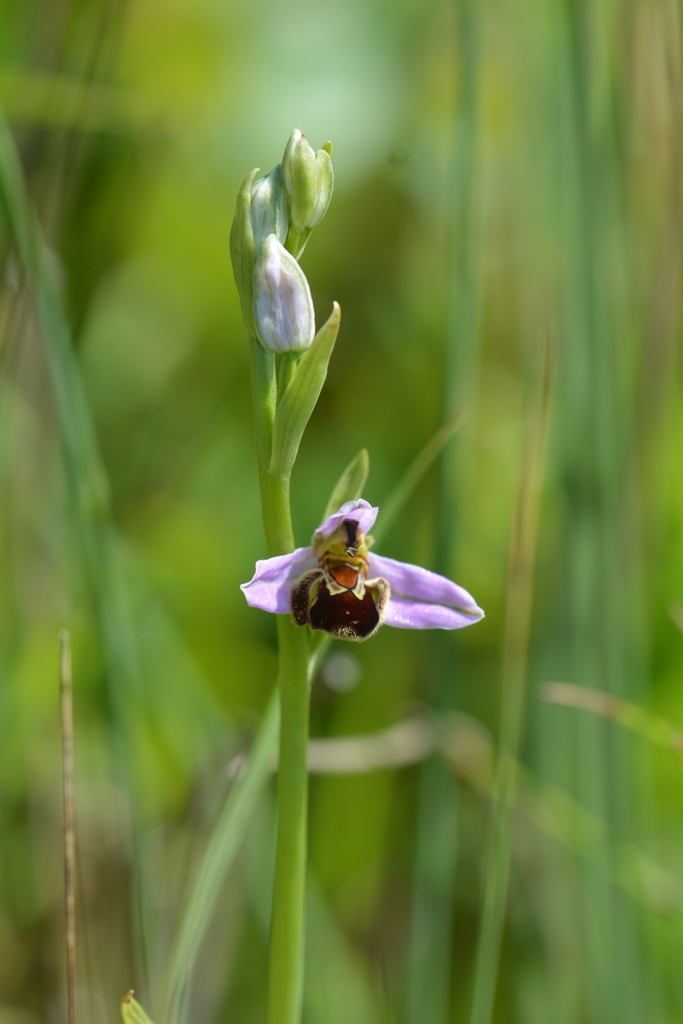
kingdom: Plantae
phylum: Tracheophyta
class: Liliopsida
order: Asparagales
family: Orchidaceae
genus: Ophrys
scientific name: Ophrys apifera
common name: Bee orchid
